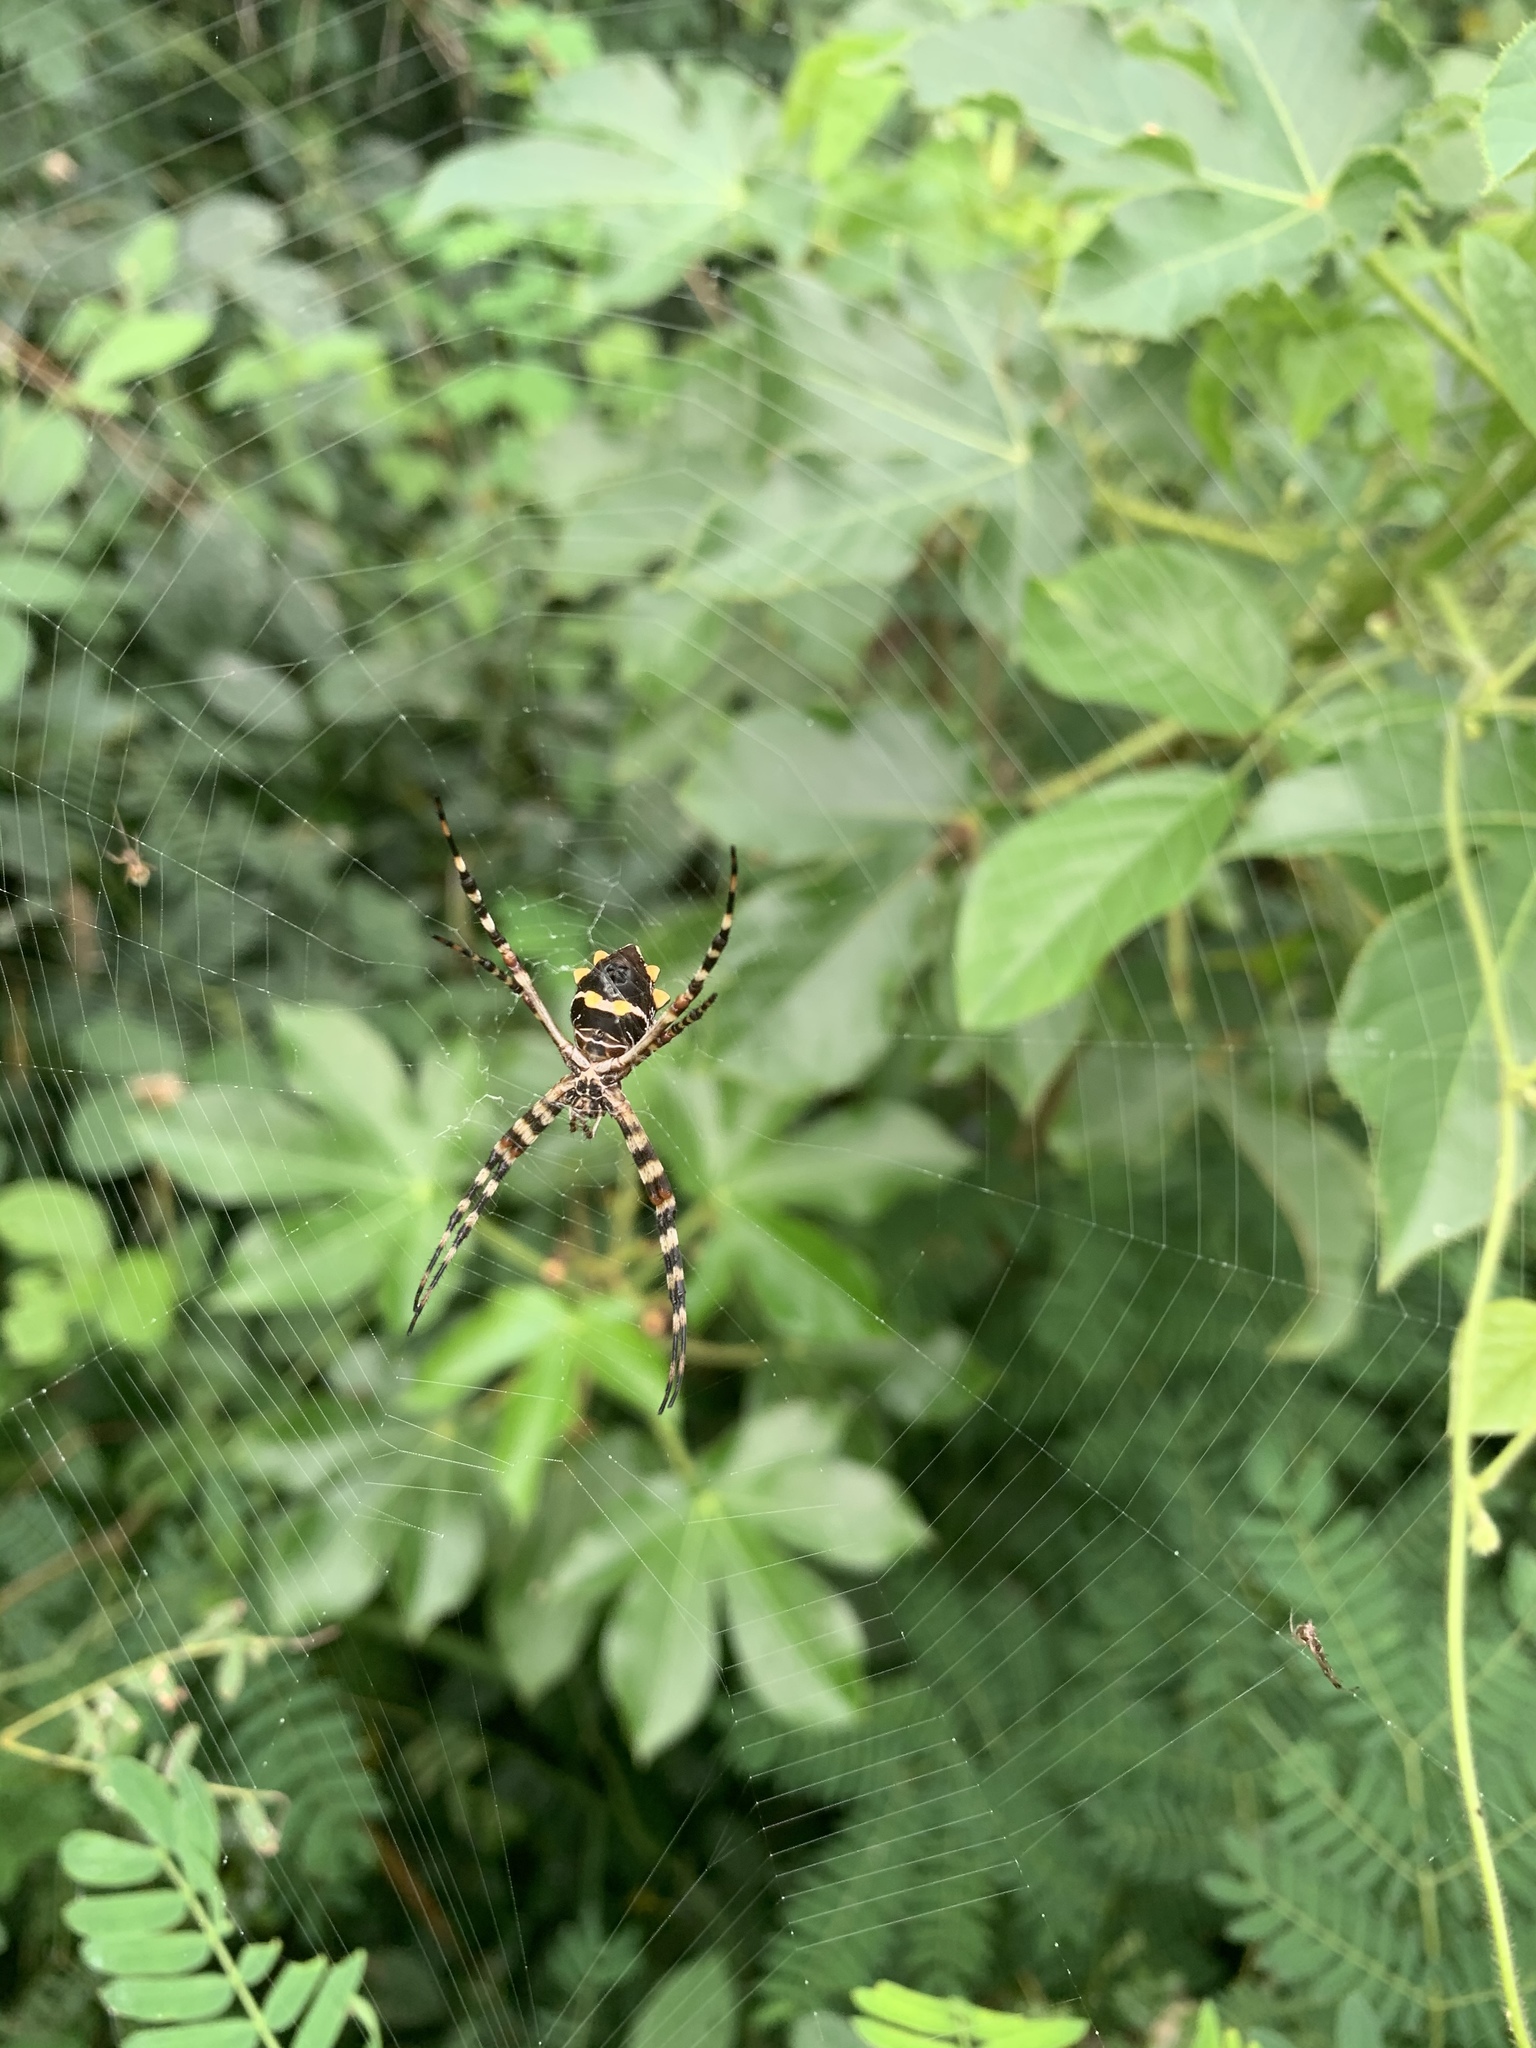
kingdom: Animalia
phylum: Arthropoda
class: Arachnida
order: Araneae
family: Araneidae
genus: Argiope
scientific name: Argiope argentata
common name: Orb weavers
